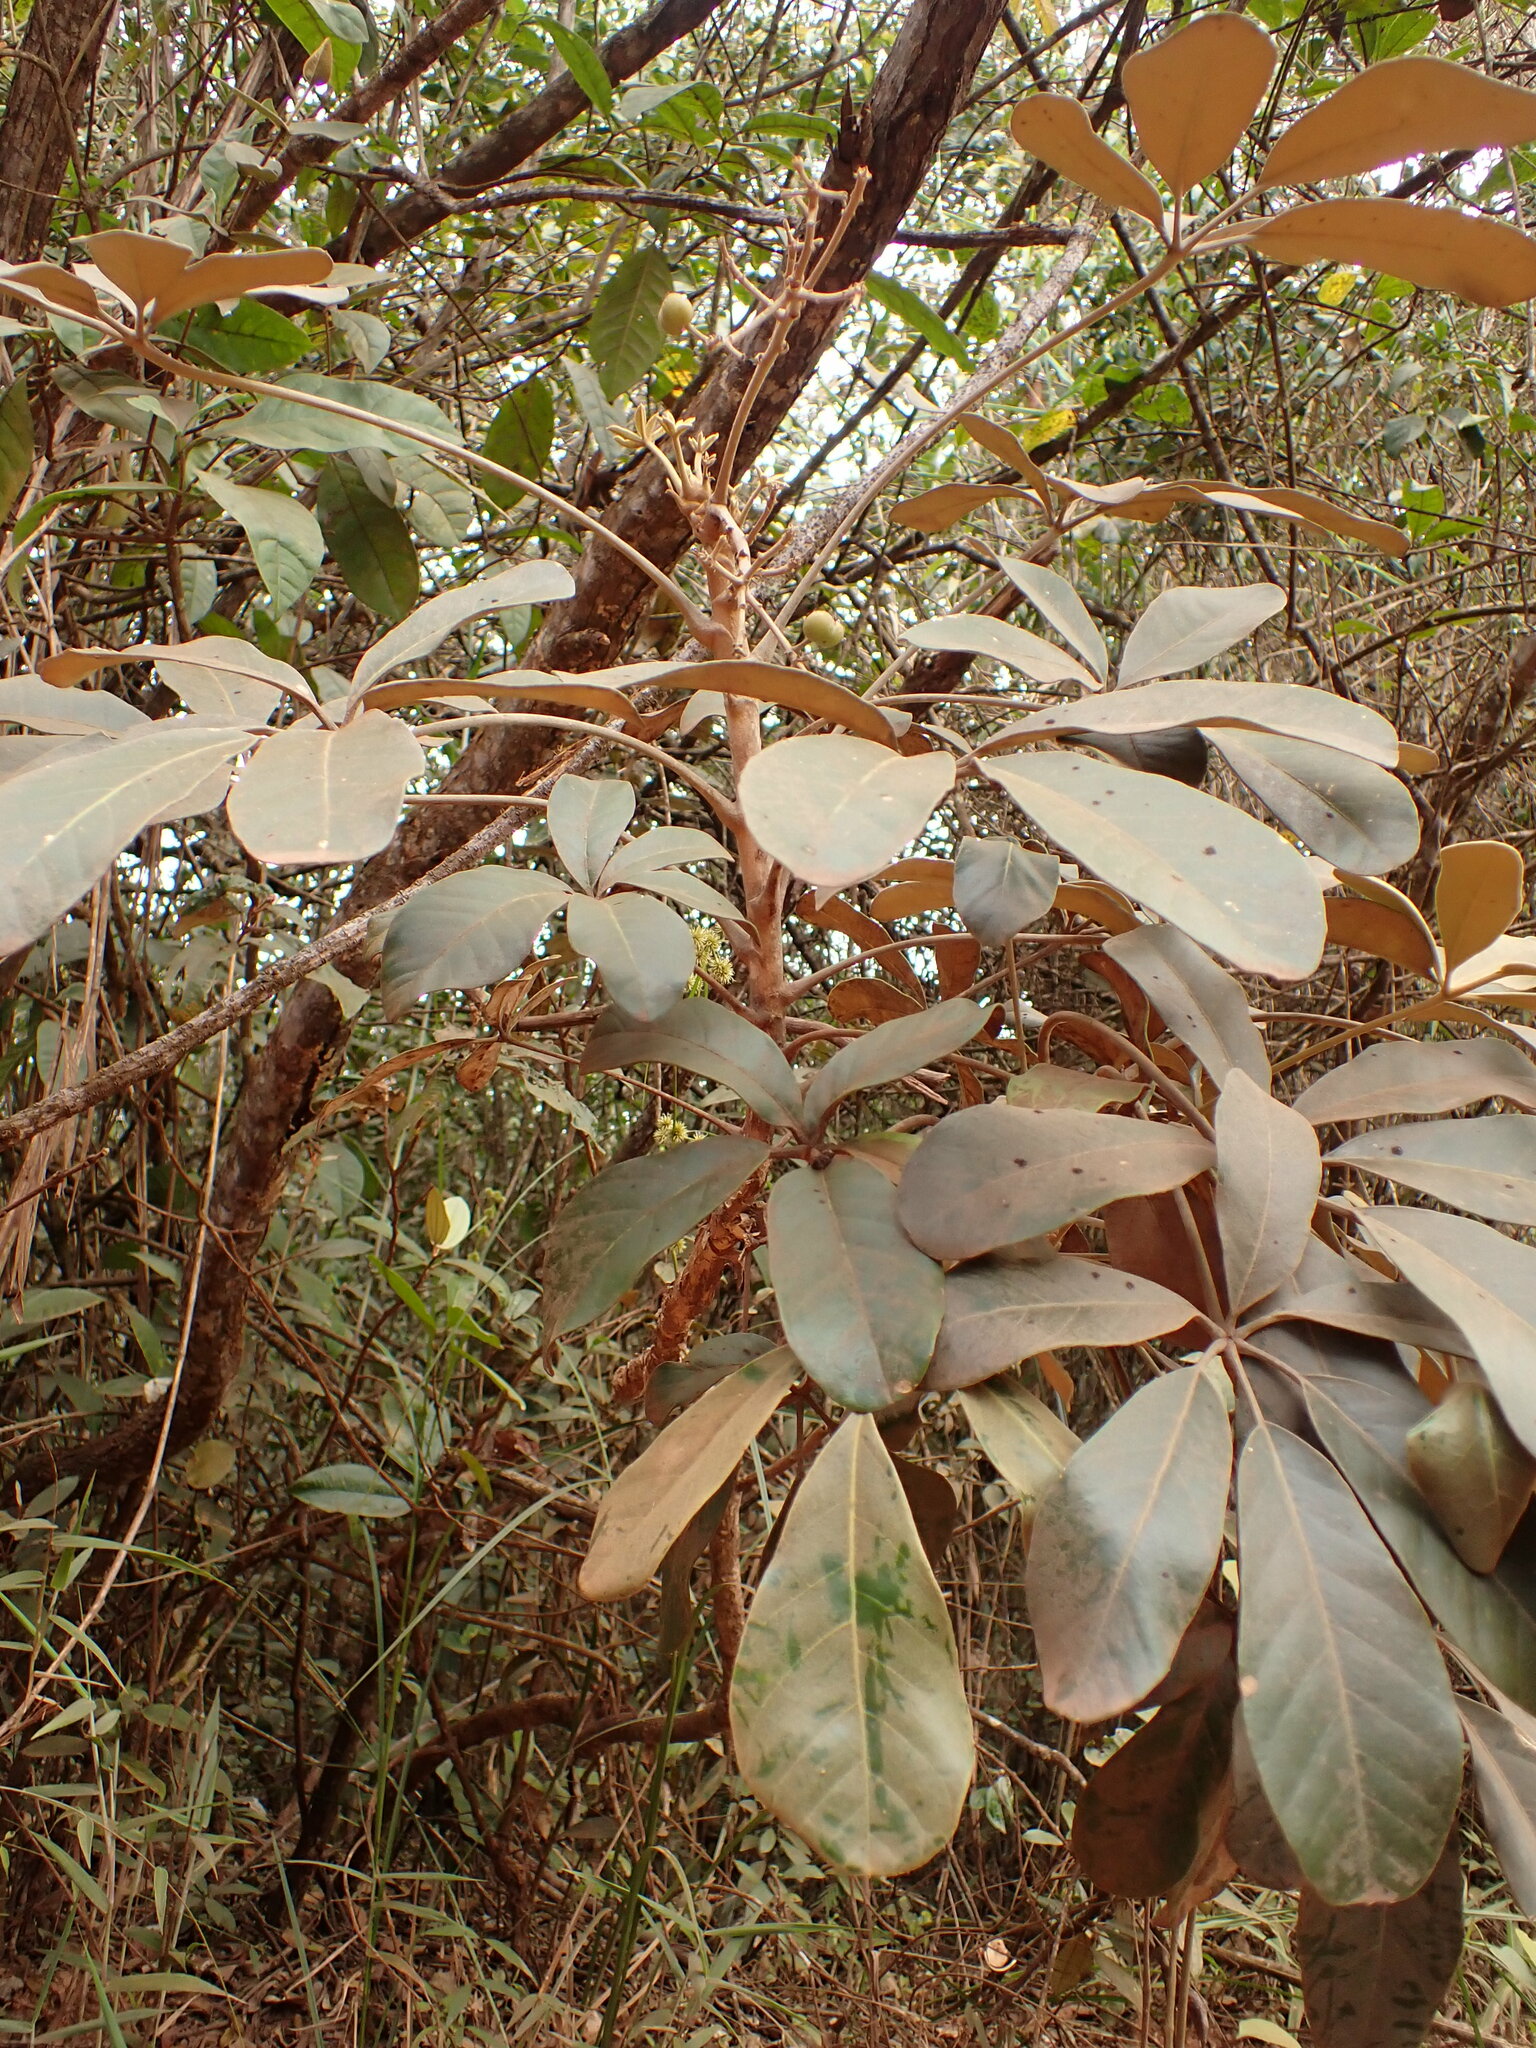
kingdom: Plantae
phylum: Tracheophyta
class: Magnoliopsida
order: Apiales
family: Araliaceae
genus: Didymopanax
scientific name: Didymopanax macrocarpus
